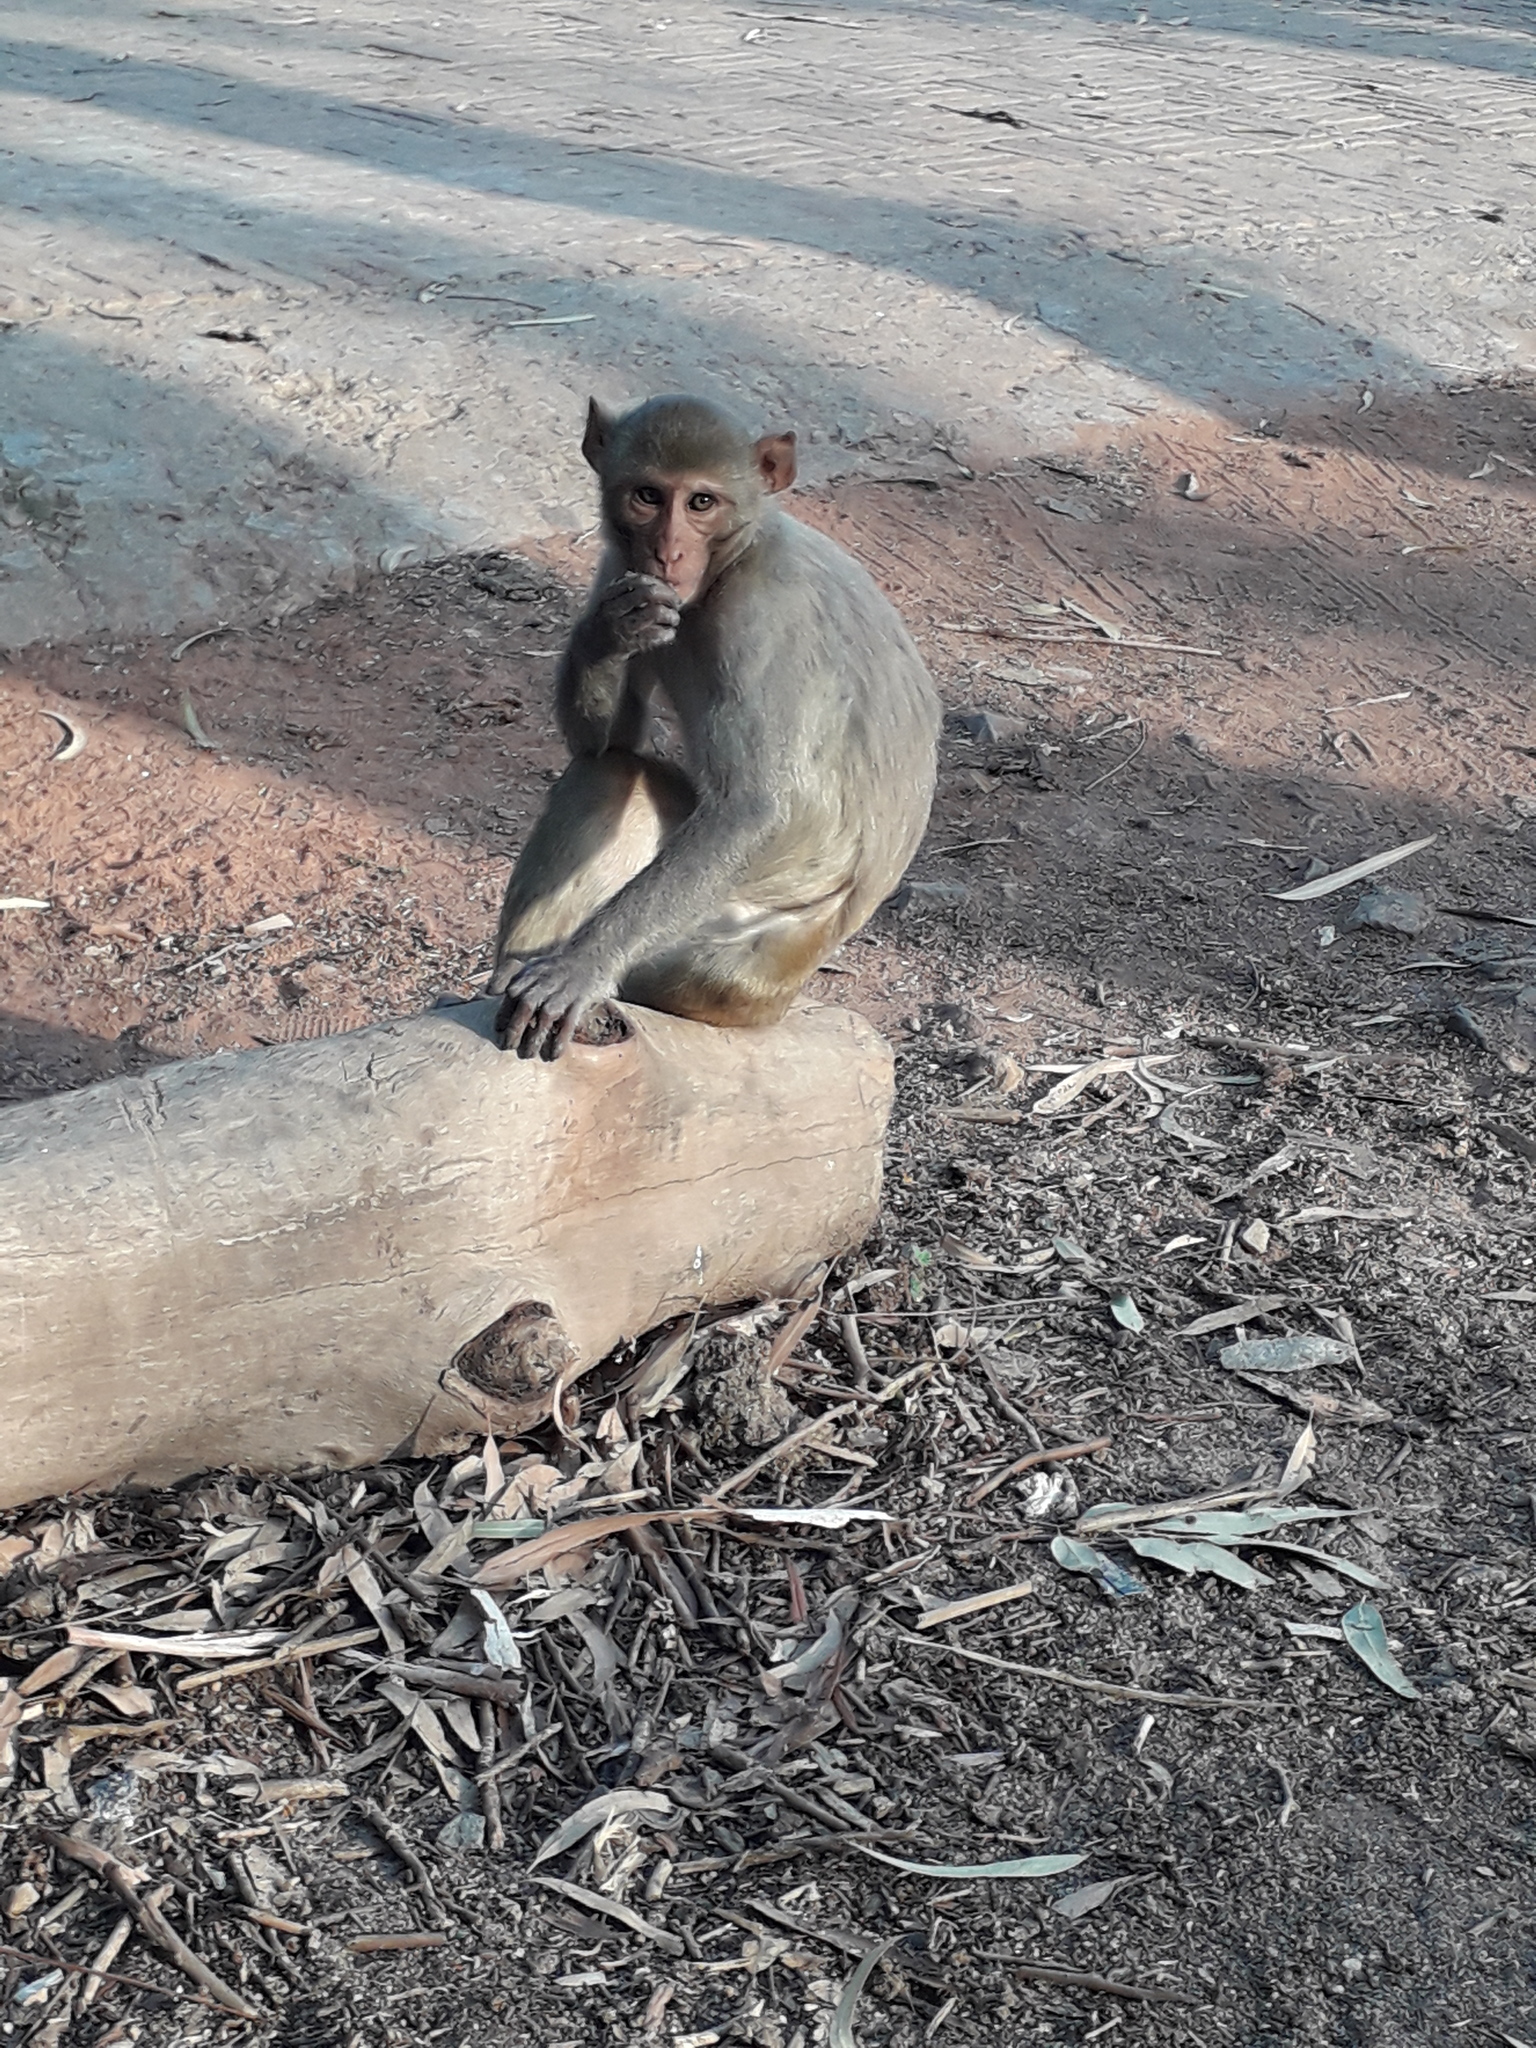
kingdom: Animalia
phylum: Chordata
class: Mammalia
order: Primates
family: Cercopithecidae
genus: Macaca
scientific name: Macaca mulatta
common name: Rhesus monkey
